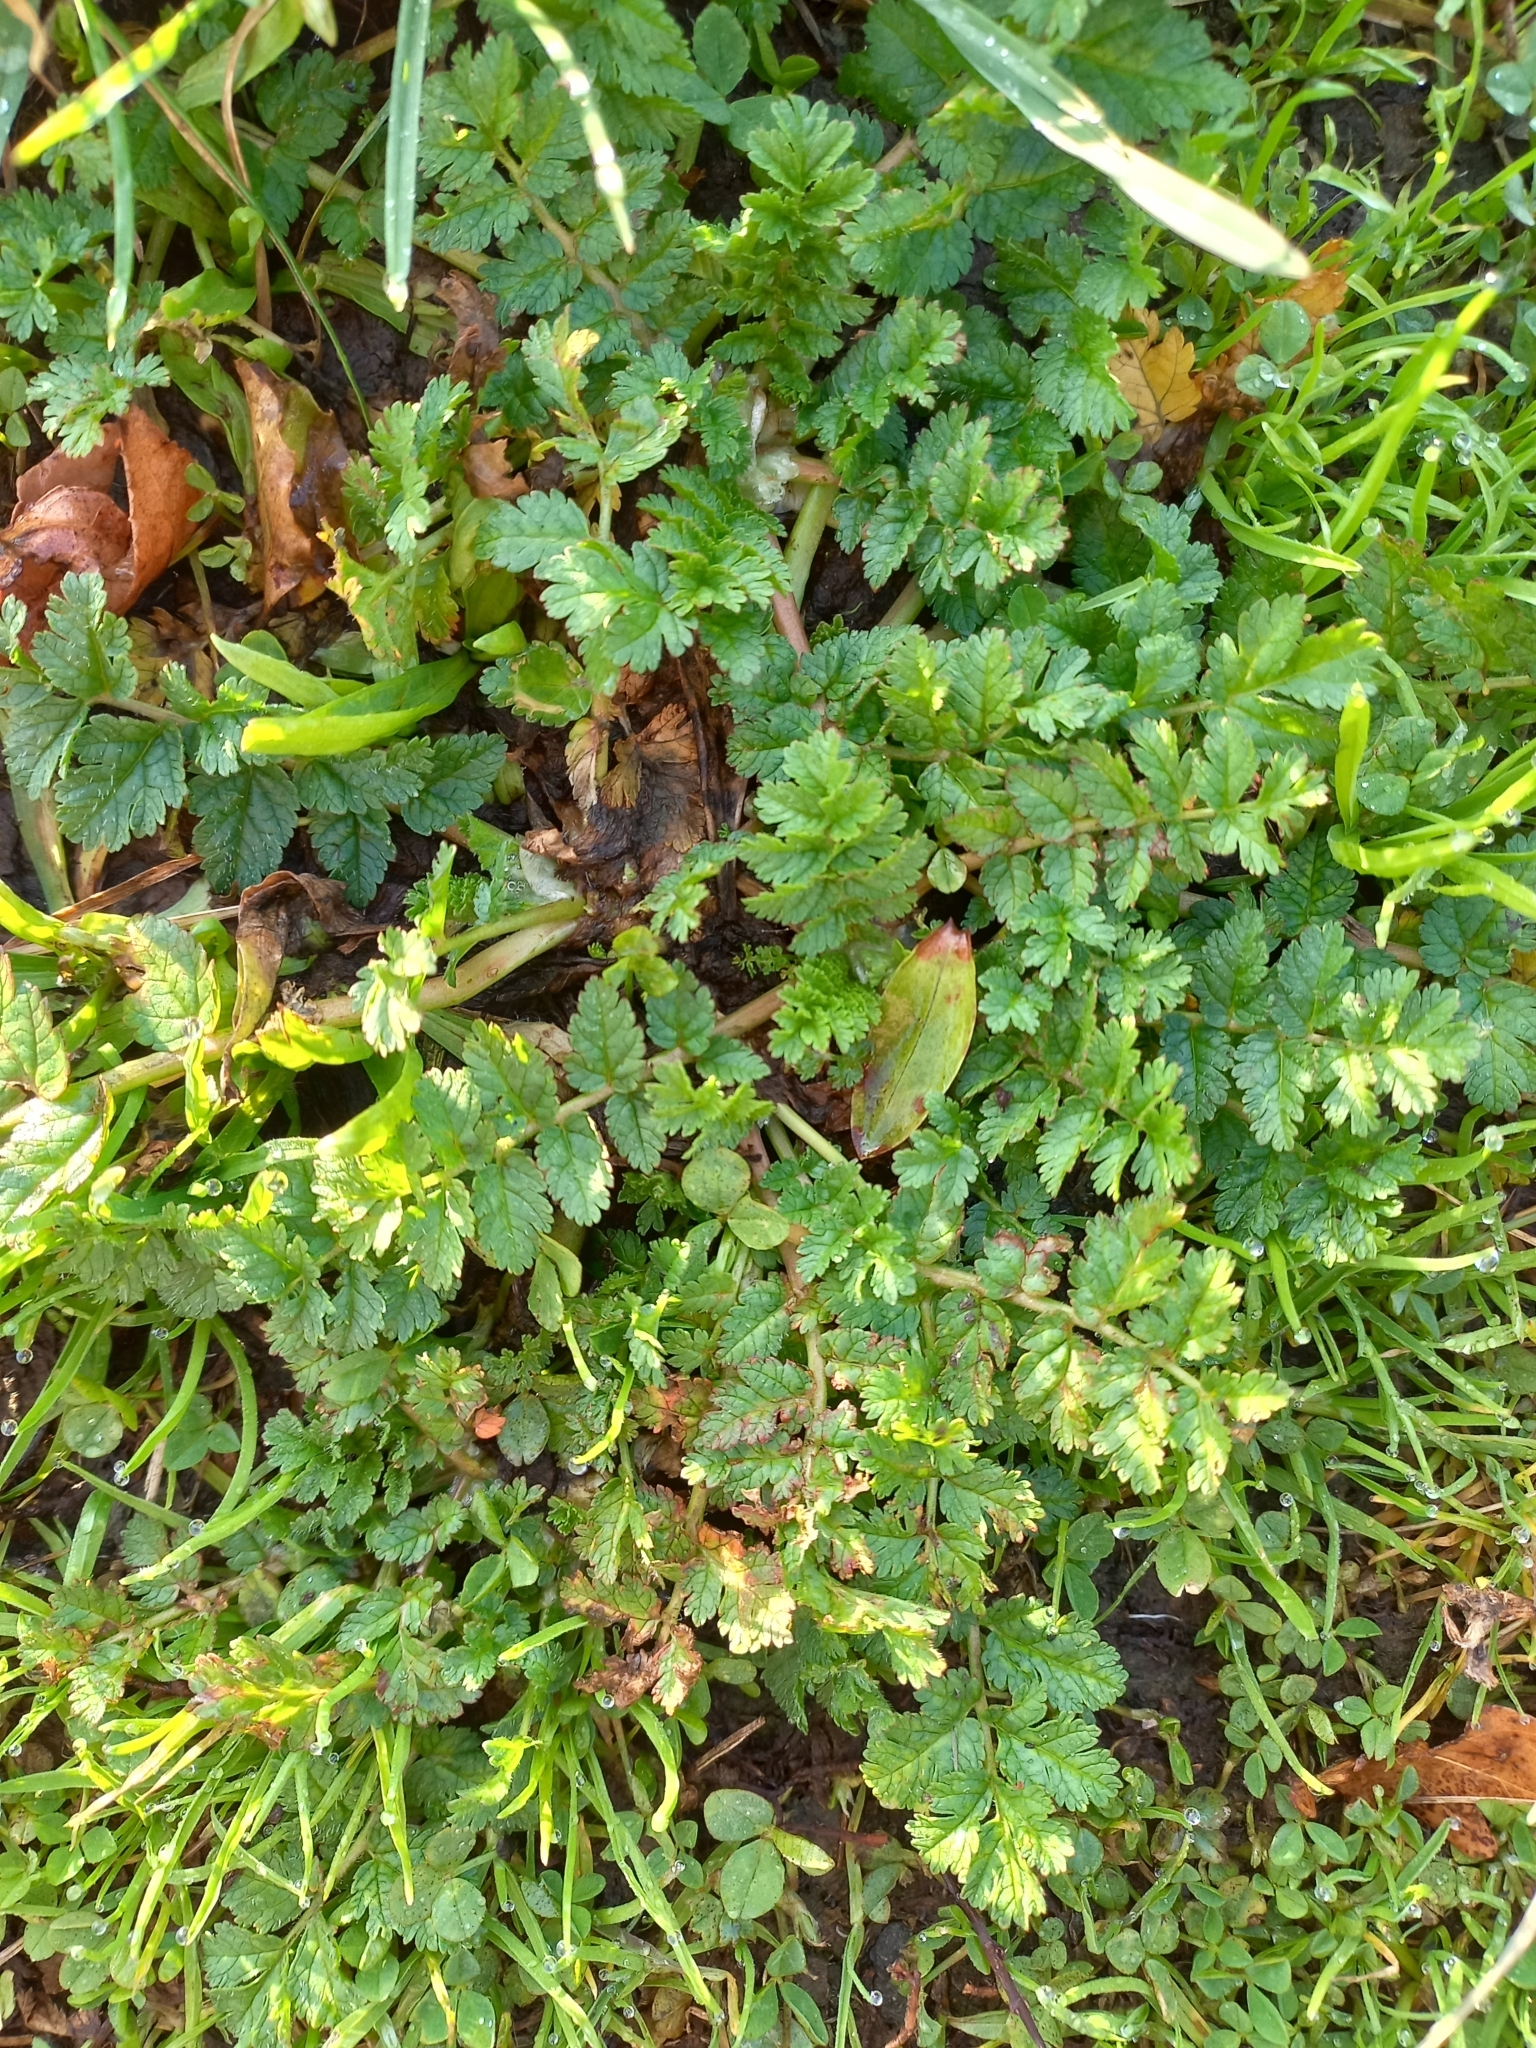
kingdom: Plantae
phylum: Tracheophyta
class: Magnoliopsida
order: Geraniales
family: Geraniaceae
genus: Erodium
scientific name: Erodium moschatum
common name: Musk stork's-bill
